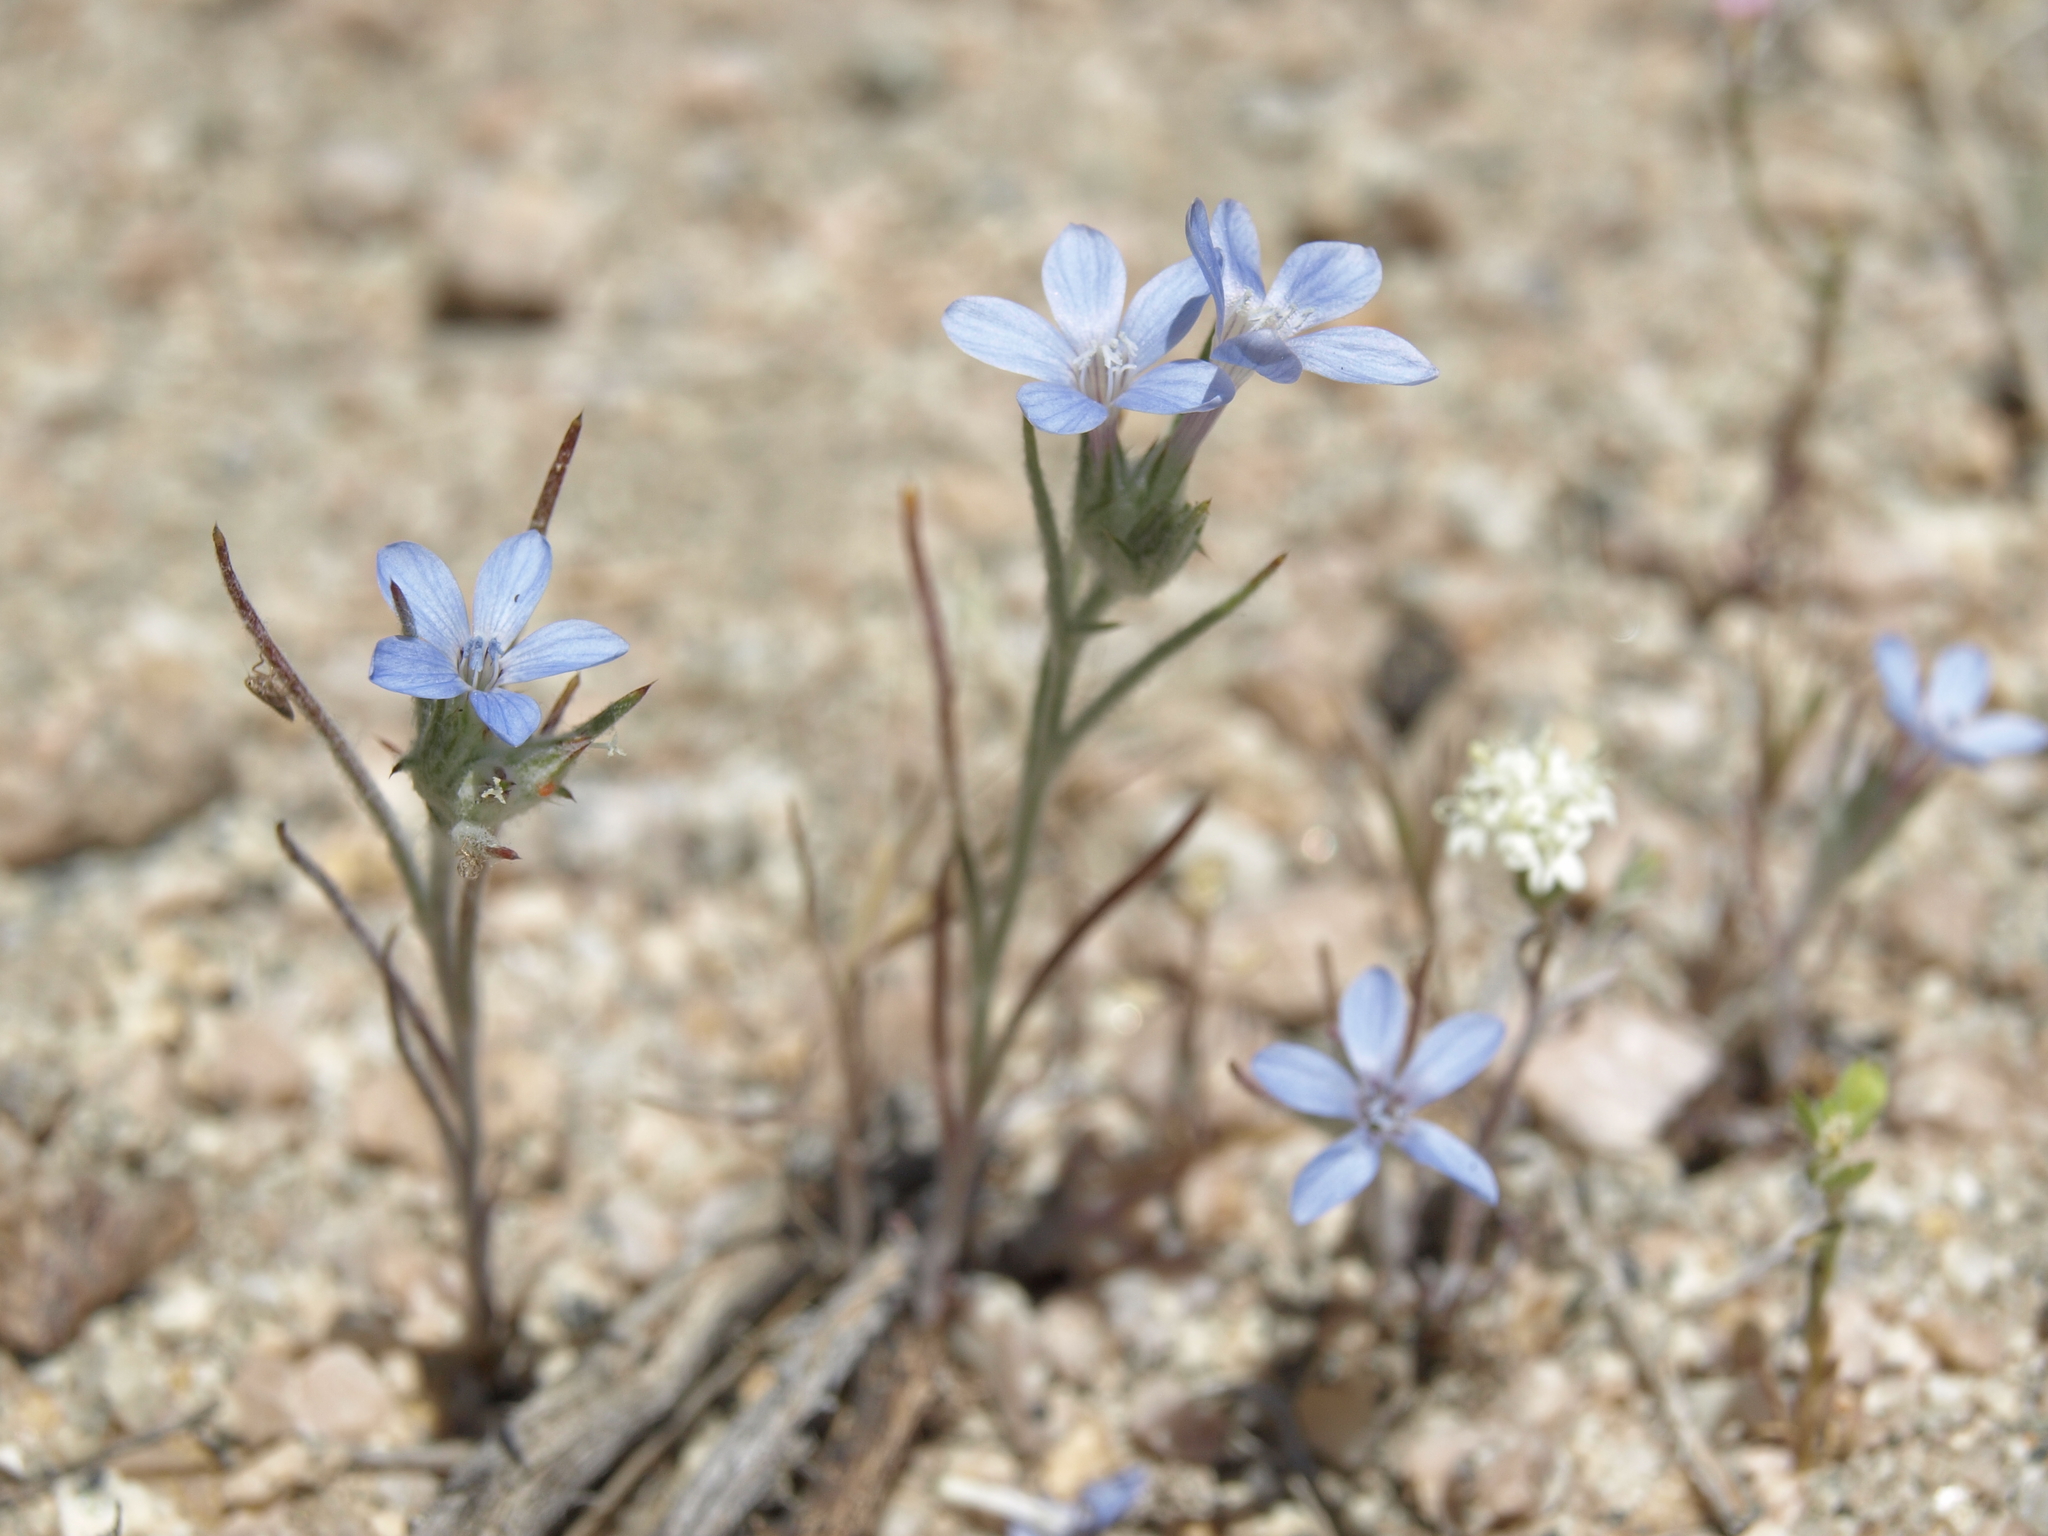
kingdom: Plantae
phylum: Tracheophyta
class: Magnoliopsida
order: Ericales
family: Polemoniaceae
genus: Eriastrum
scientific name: Eriastrum wilcoxii
